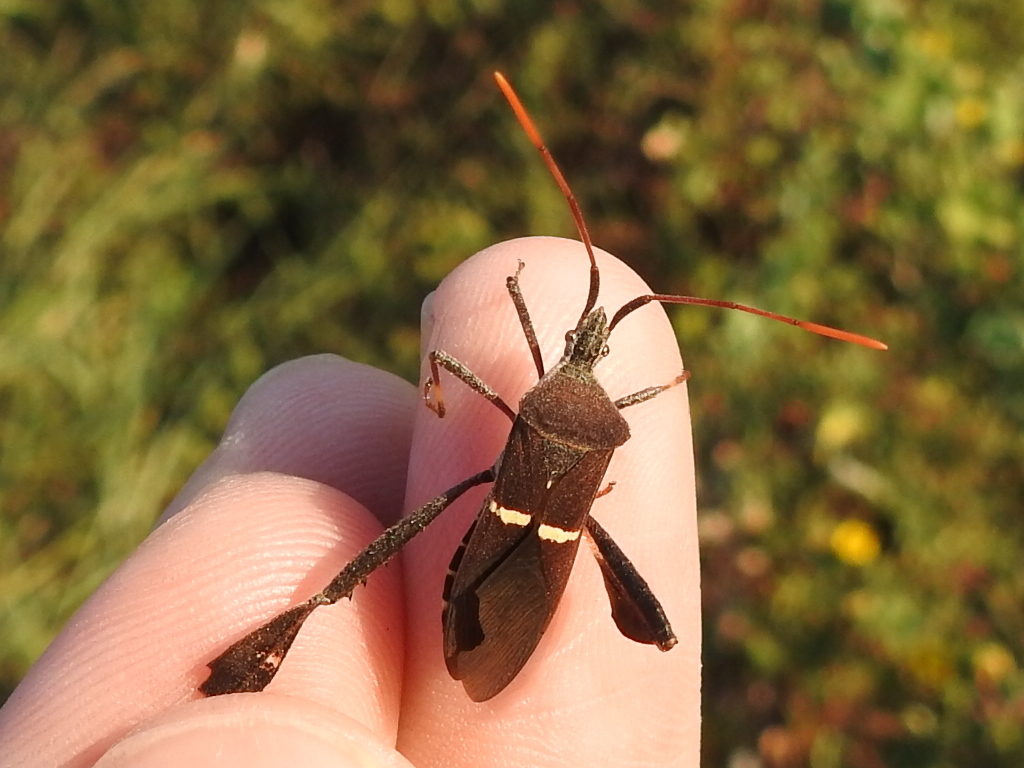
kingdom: Animalia
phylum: Arthropoda
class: Insecta
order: Hemiptera
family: Coreidae
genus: Leptoglossus
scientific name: Leptoglossus phyllopus
